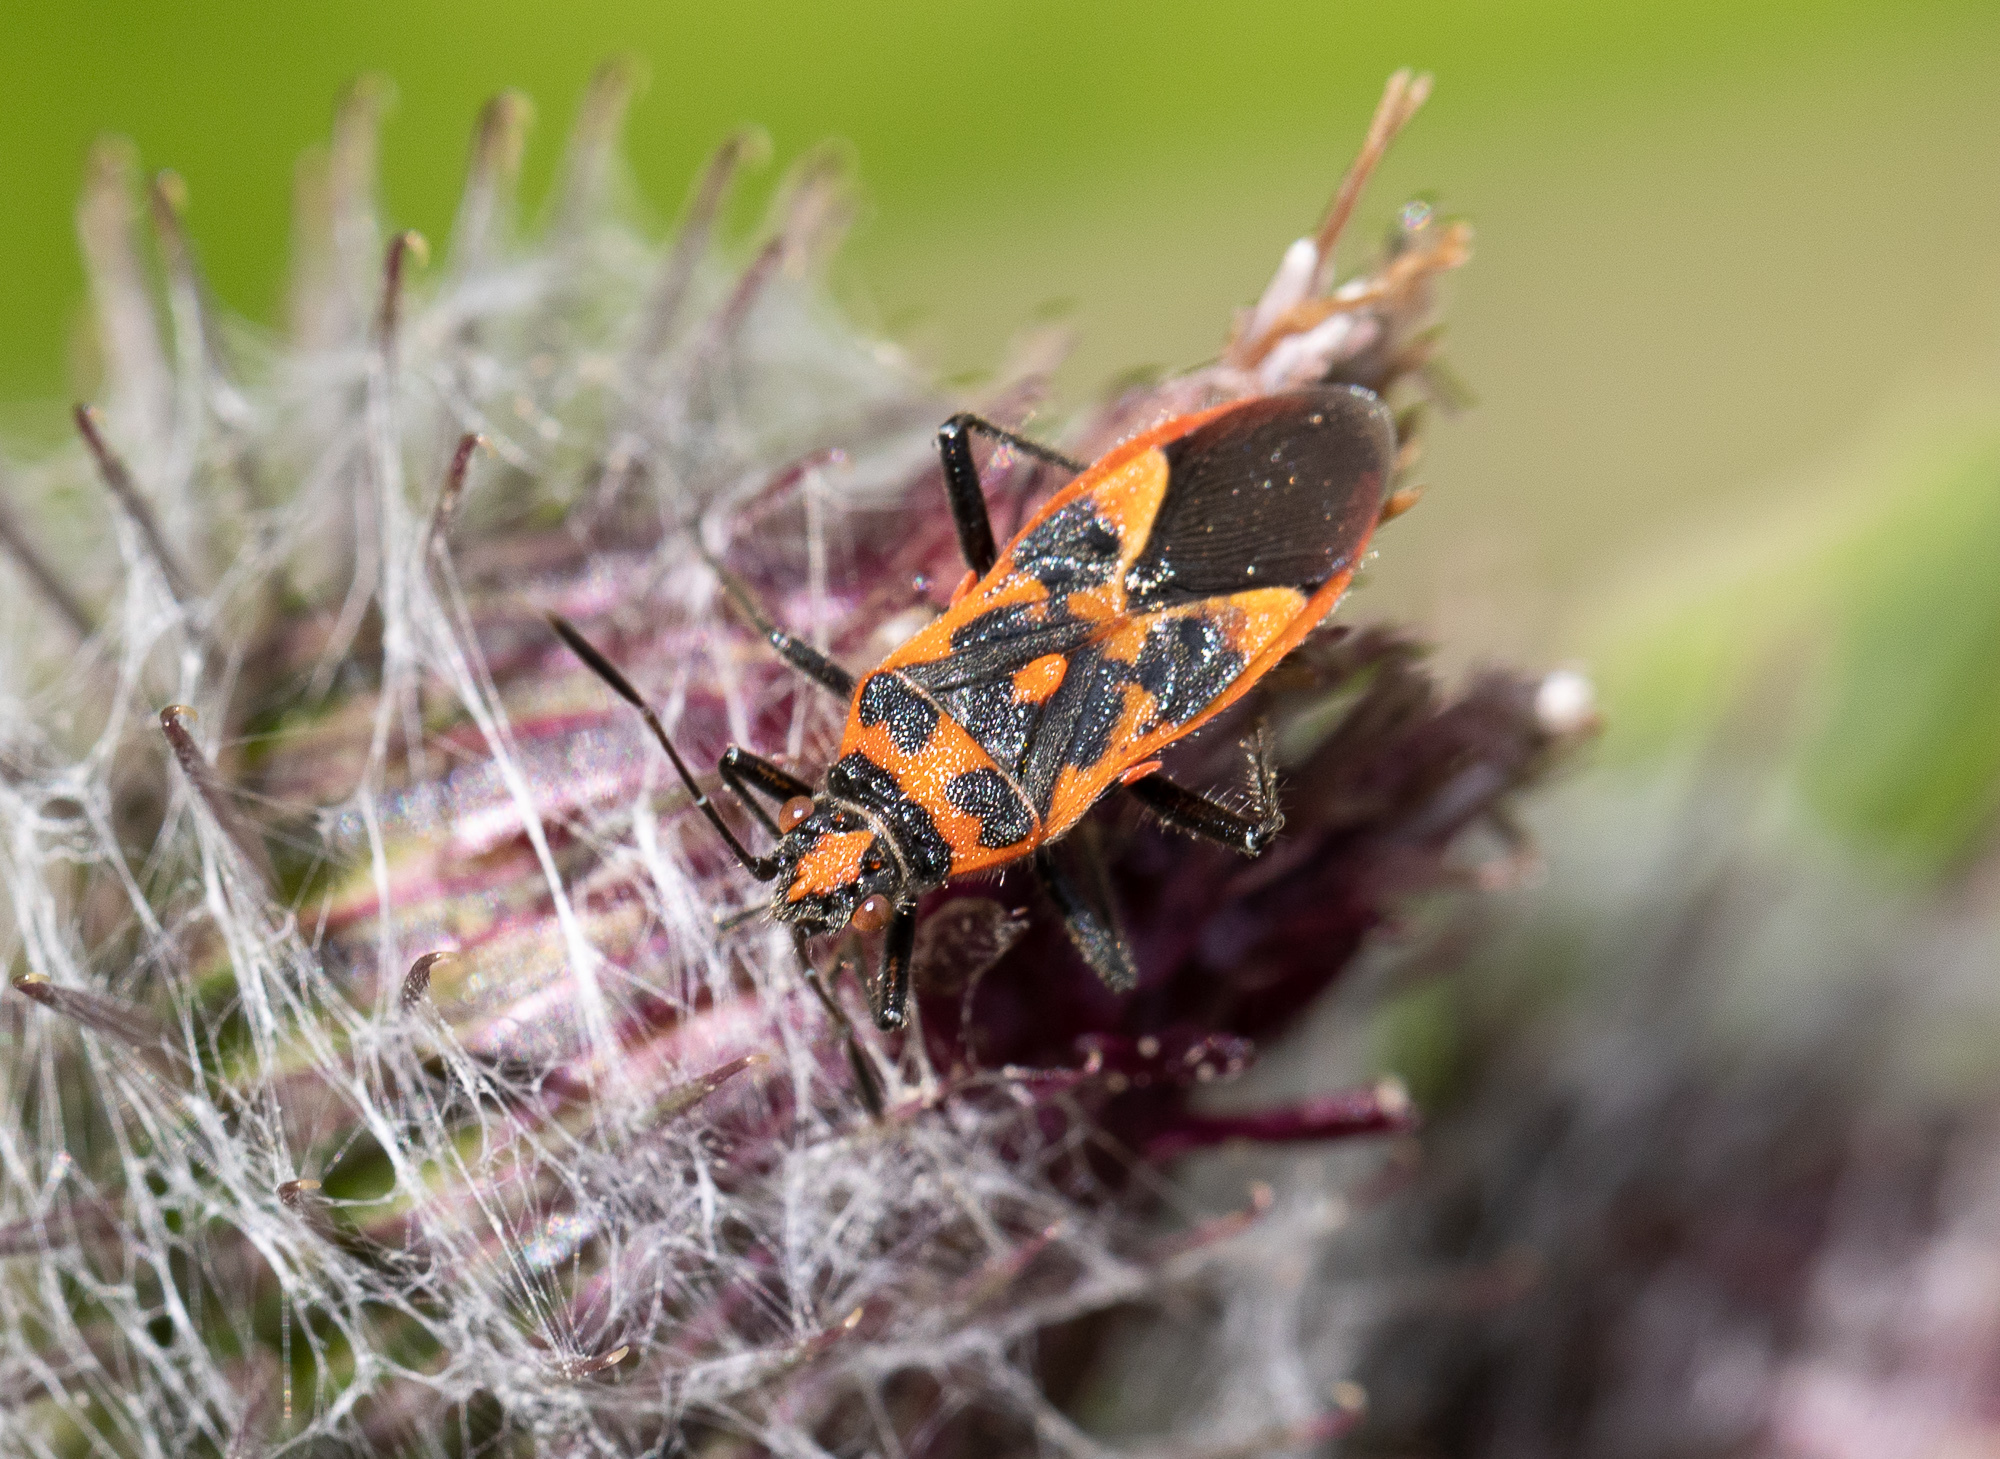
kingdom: Animalia
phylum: Arthropoda
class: Insecta
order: Hemiptera
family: Rhopalidae
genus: Corizus
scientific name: Corizus hyoscyami
